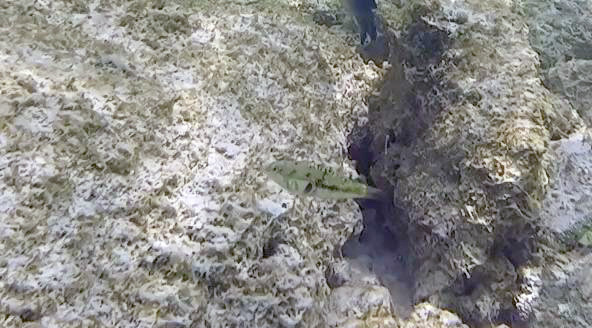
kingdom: Animalia
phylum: Chordata
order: Perciformes
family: Labridae
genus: Halichoeres
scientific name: Halichoeres nebulosus
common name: Clouded wrasse
